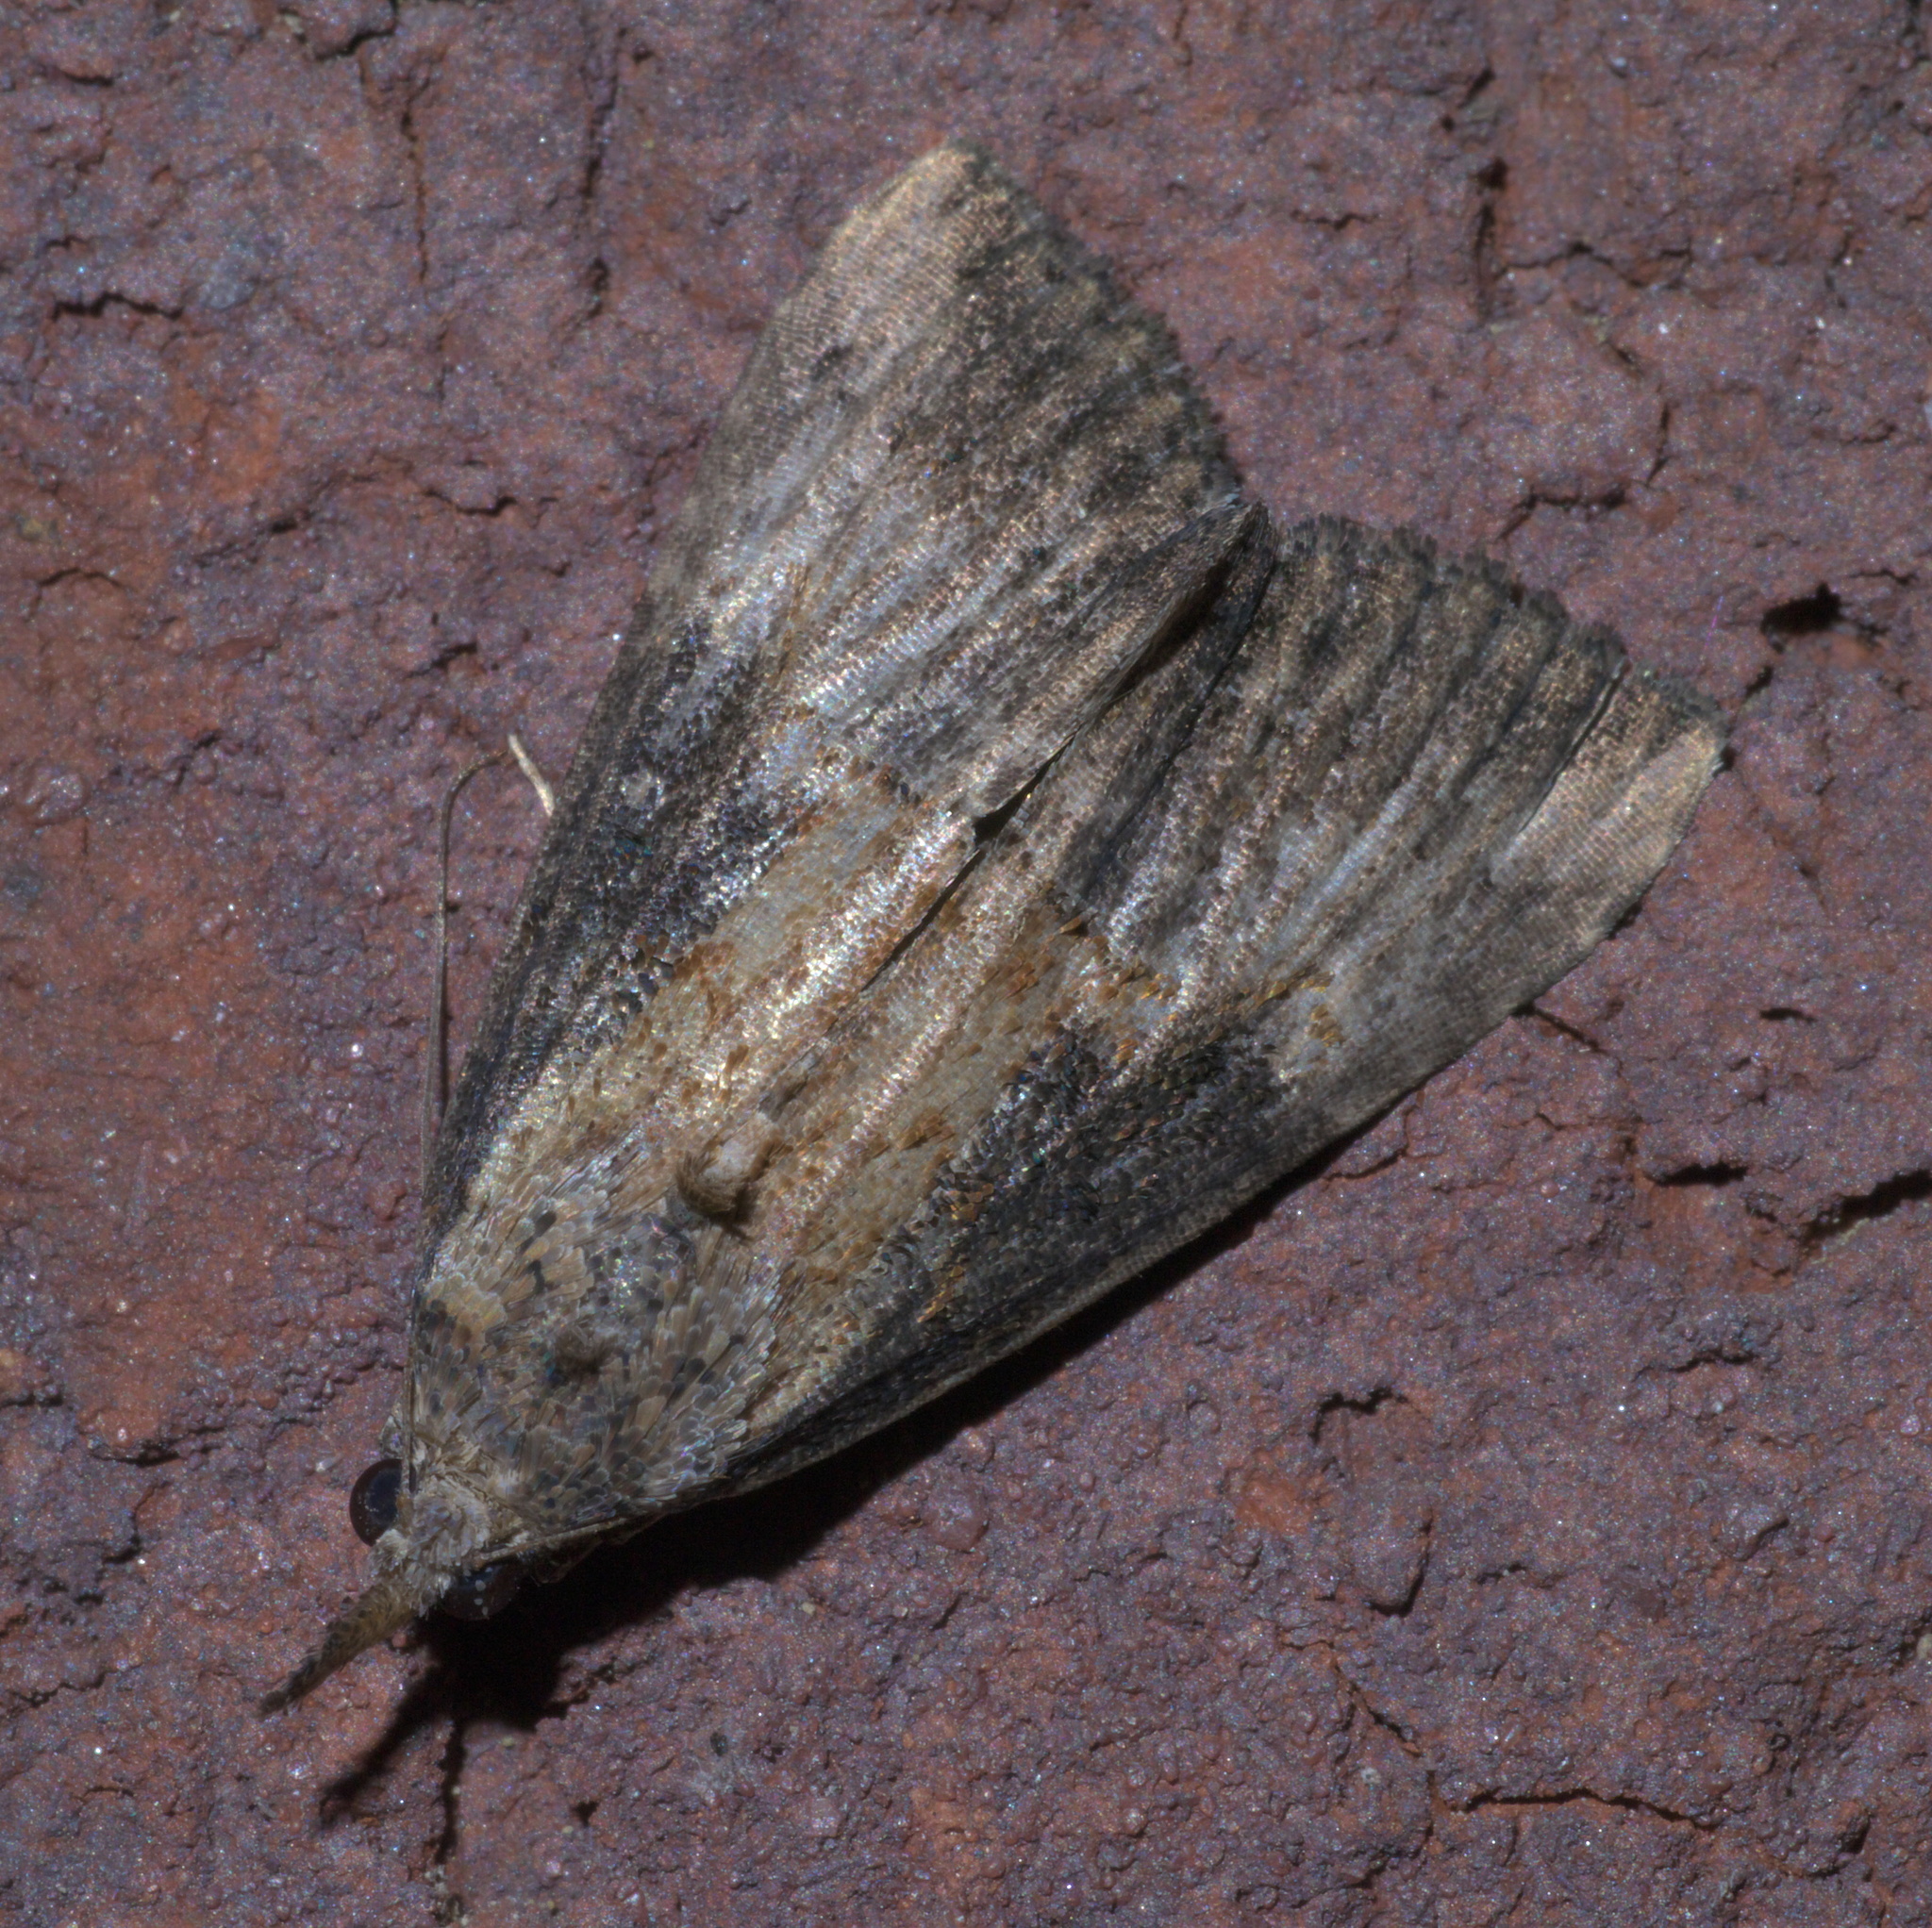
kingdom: Animalia
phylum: Arthropoda
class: Insecta
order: Lepidoptera
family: Erebidae
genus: Hypena
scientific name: Hypena scabra
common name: Green cloverworm
